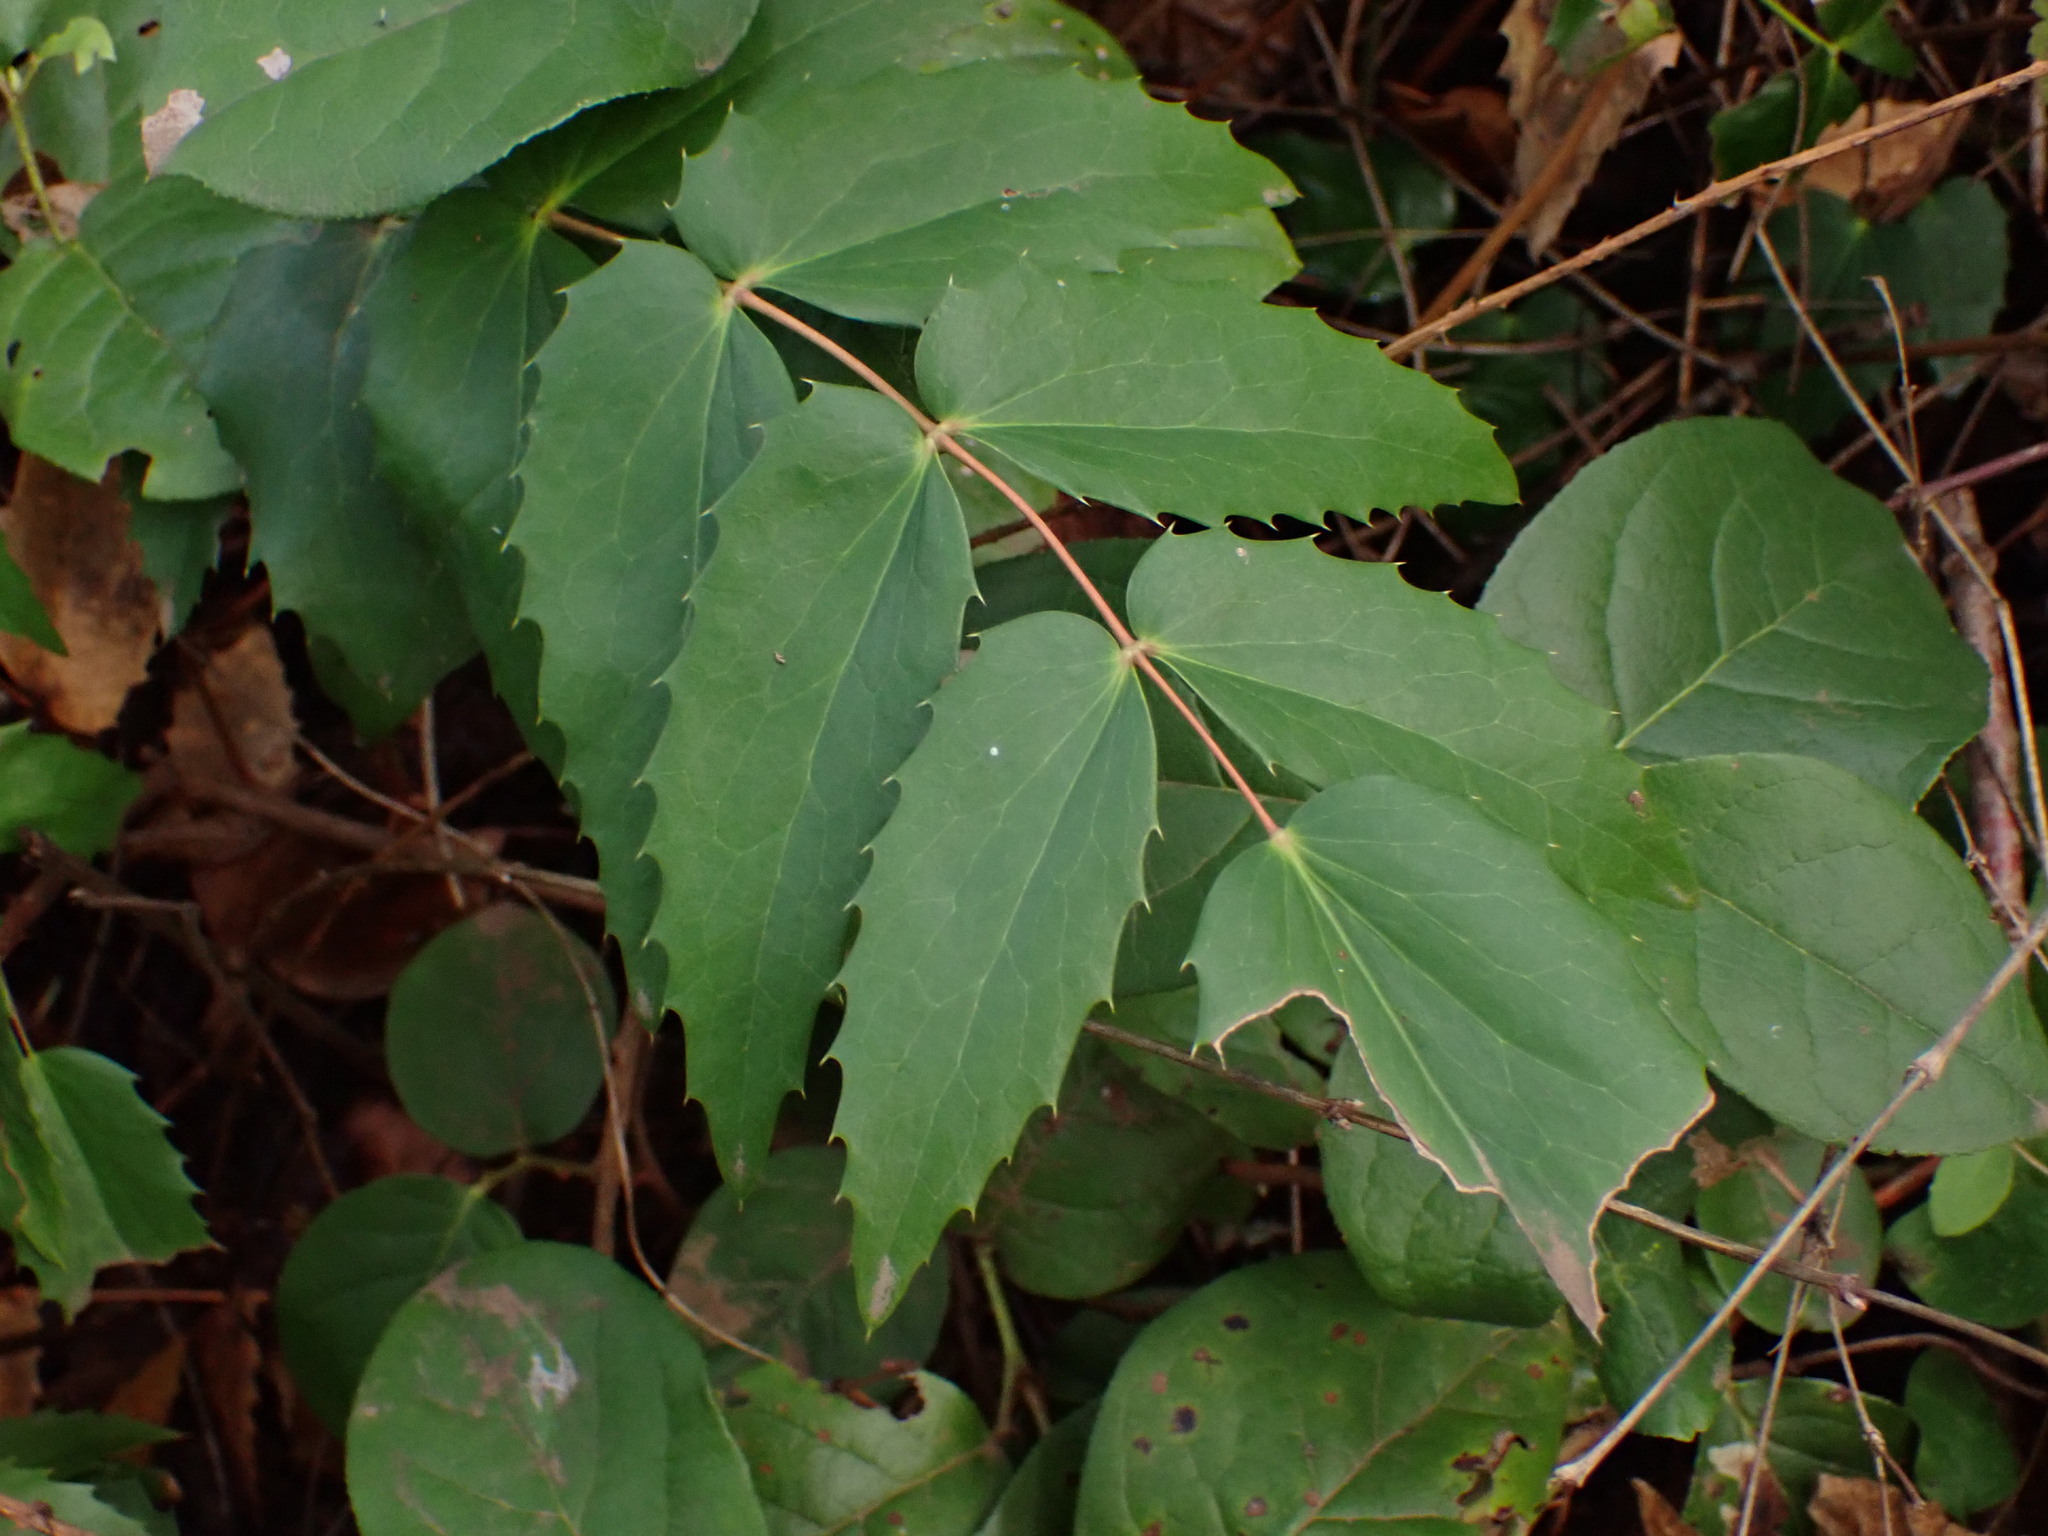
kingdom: Plantae
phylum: Tracheophyta
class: Magnoliopsida
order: Ranunculales
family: Berberidaceae
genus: Mahonia
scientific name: Mahonia nervosa
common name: Cascade oregon-grape
